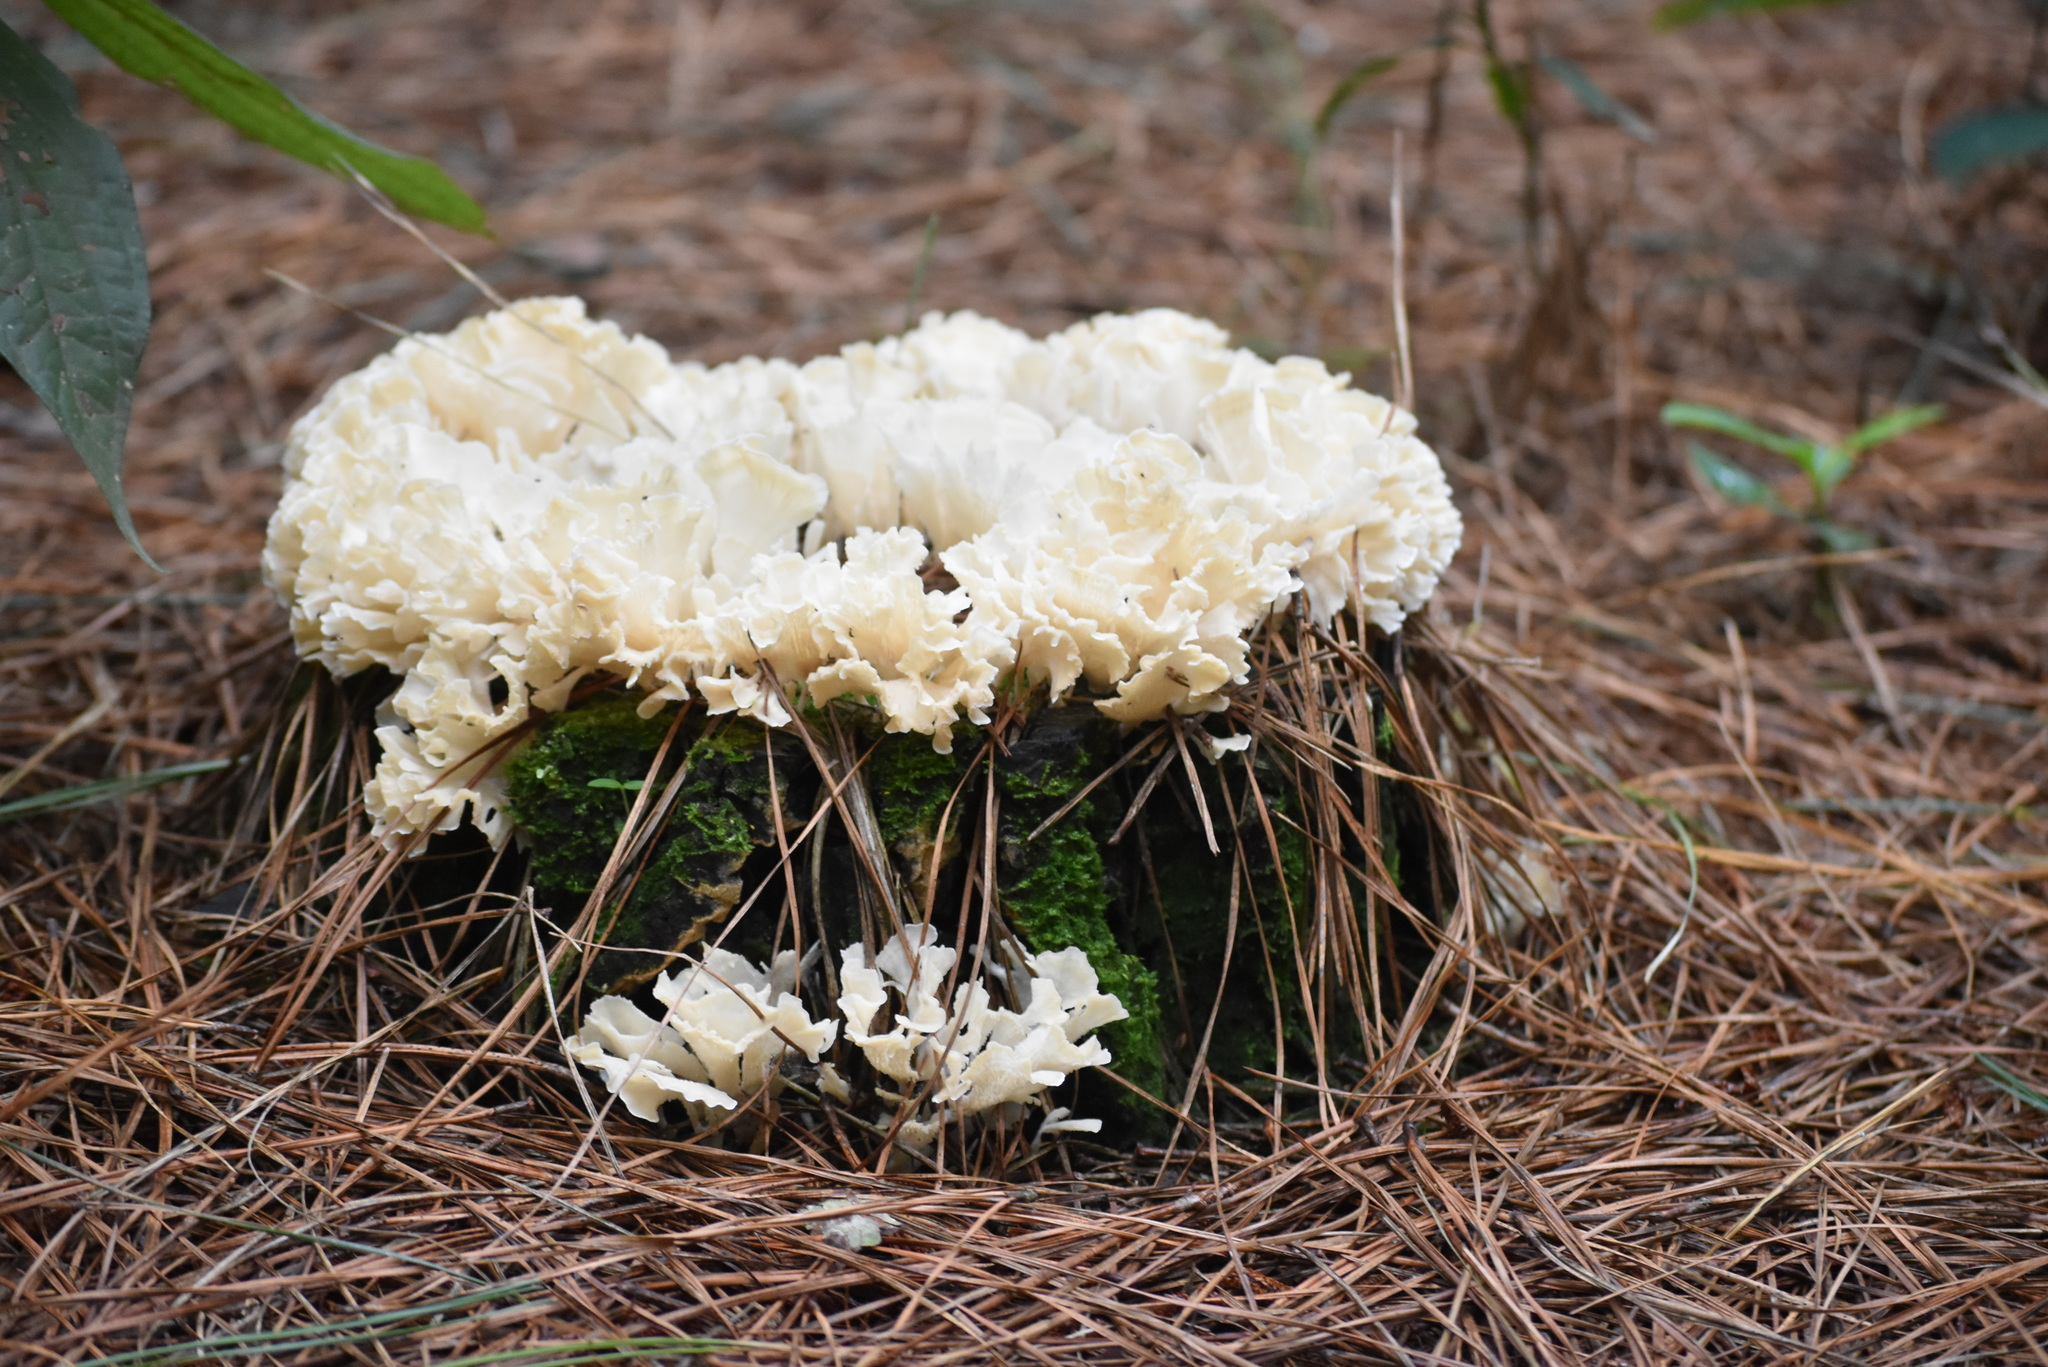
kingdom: Fungi
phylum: Basidiomycota
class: Agaricomycetes
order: Polyporales
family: Irpicaceae
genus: Irpex
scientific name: Irpex rosettiformis
